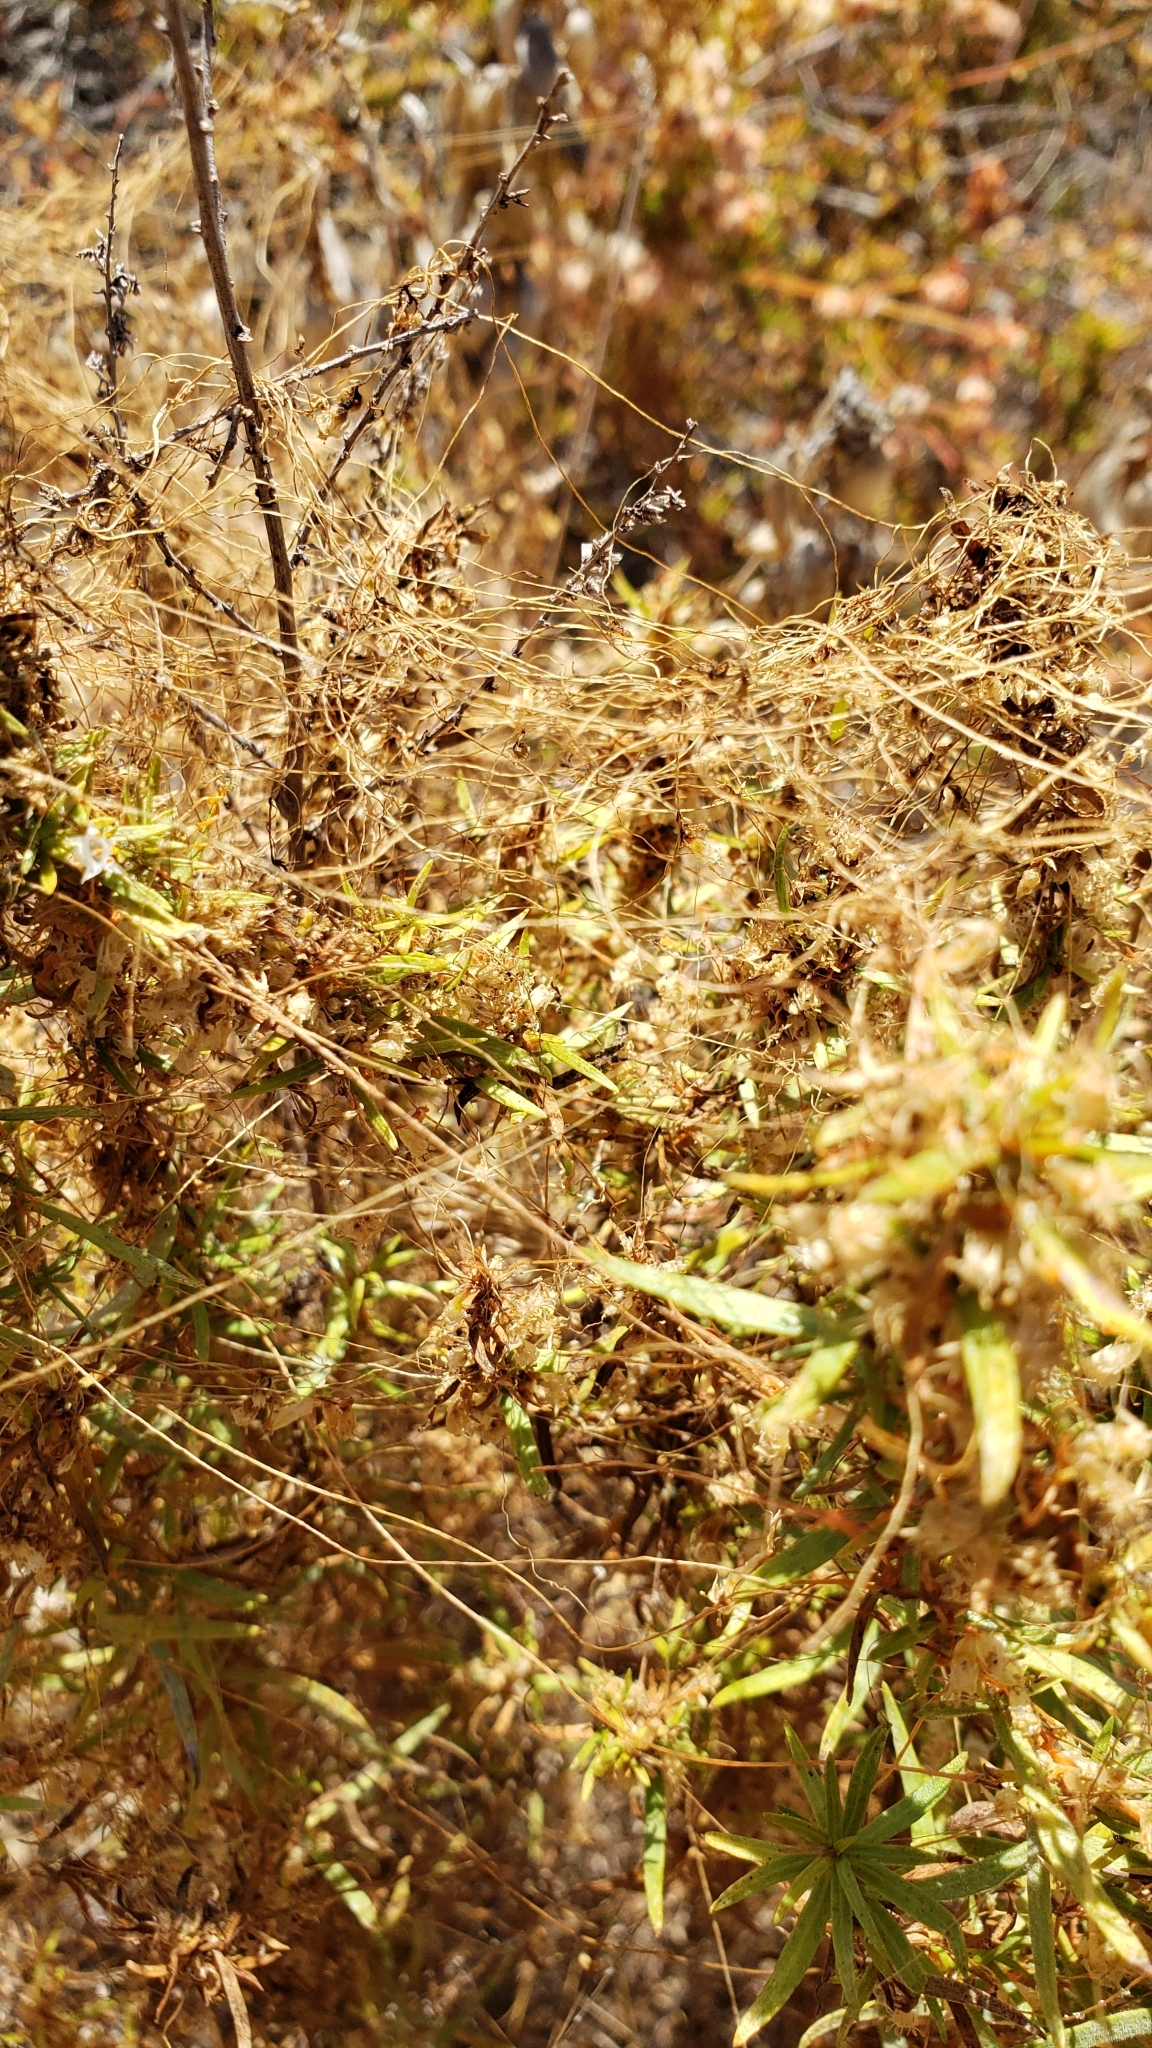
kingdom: Plantae
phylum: Tracheophyta
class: Magnoliopsida
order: Solanales
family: Convolvulaceae
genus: Cuscuta
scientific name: Cuscuta californica
